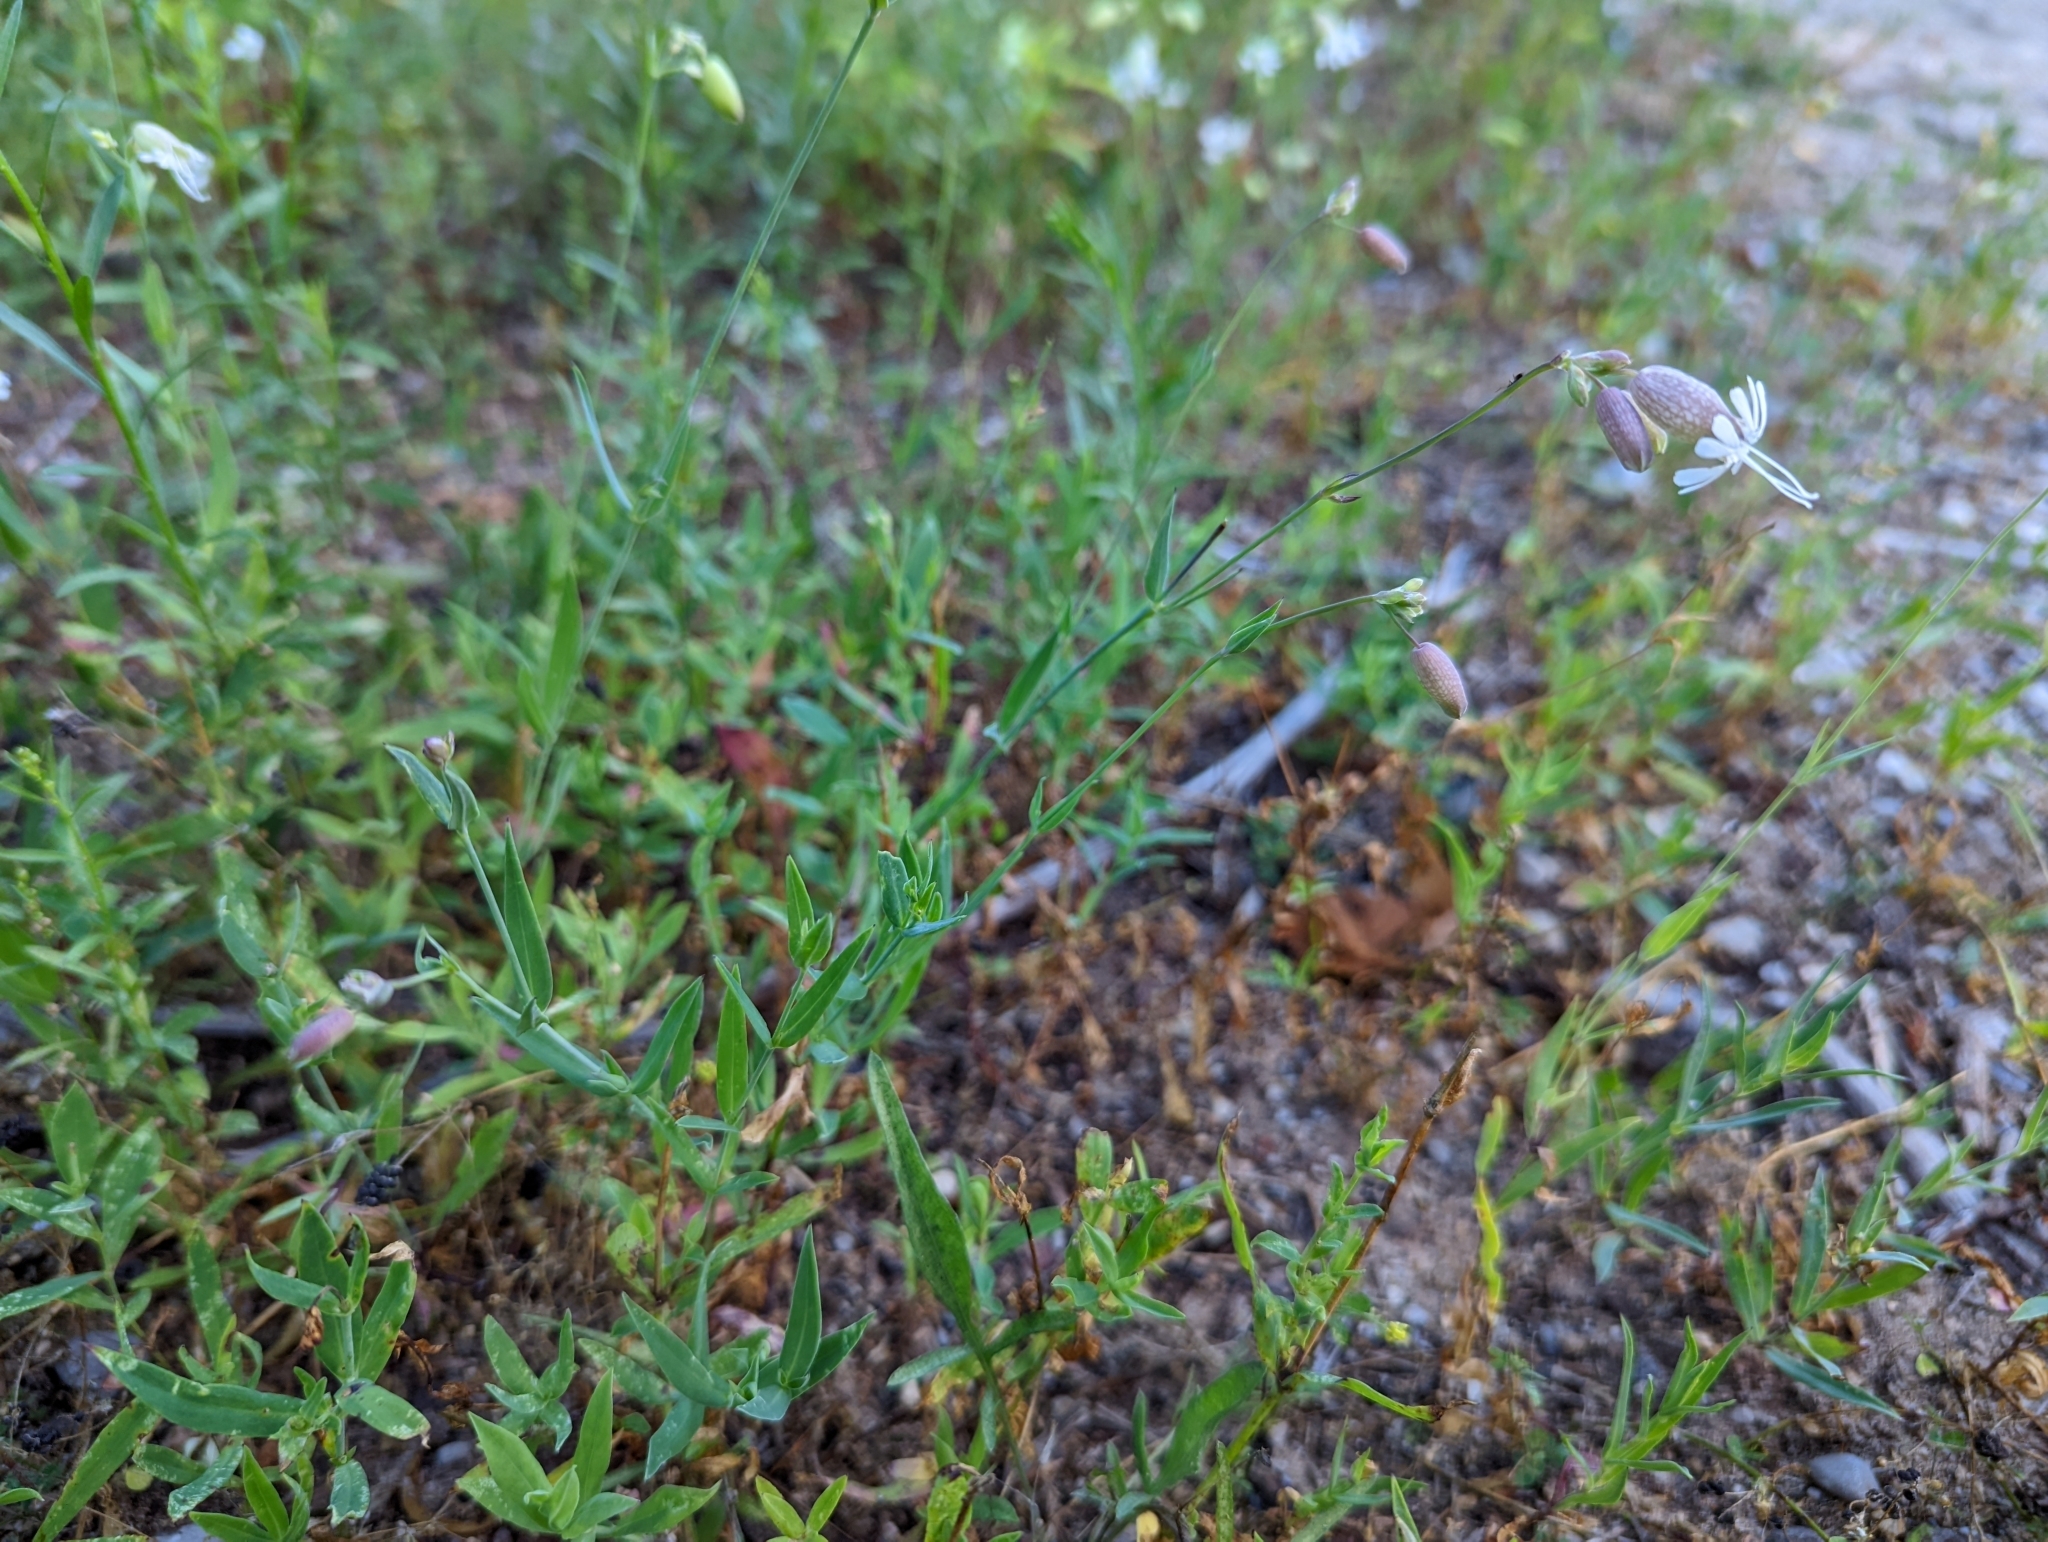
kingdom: Plantae
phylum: Tracheophyta
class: Magnoliopsida
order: Caryophyllales
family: Caryophyllaceae
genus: Silene
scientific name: Silene vulgaris
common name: Bladder campion
